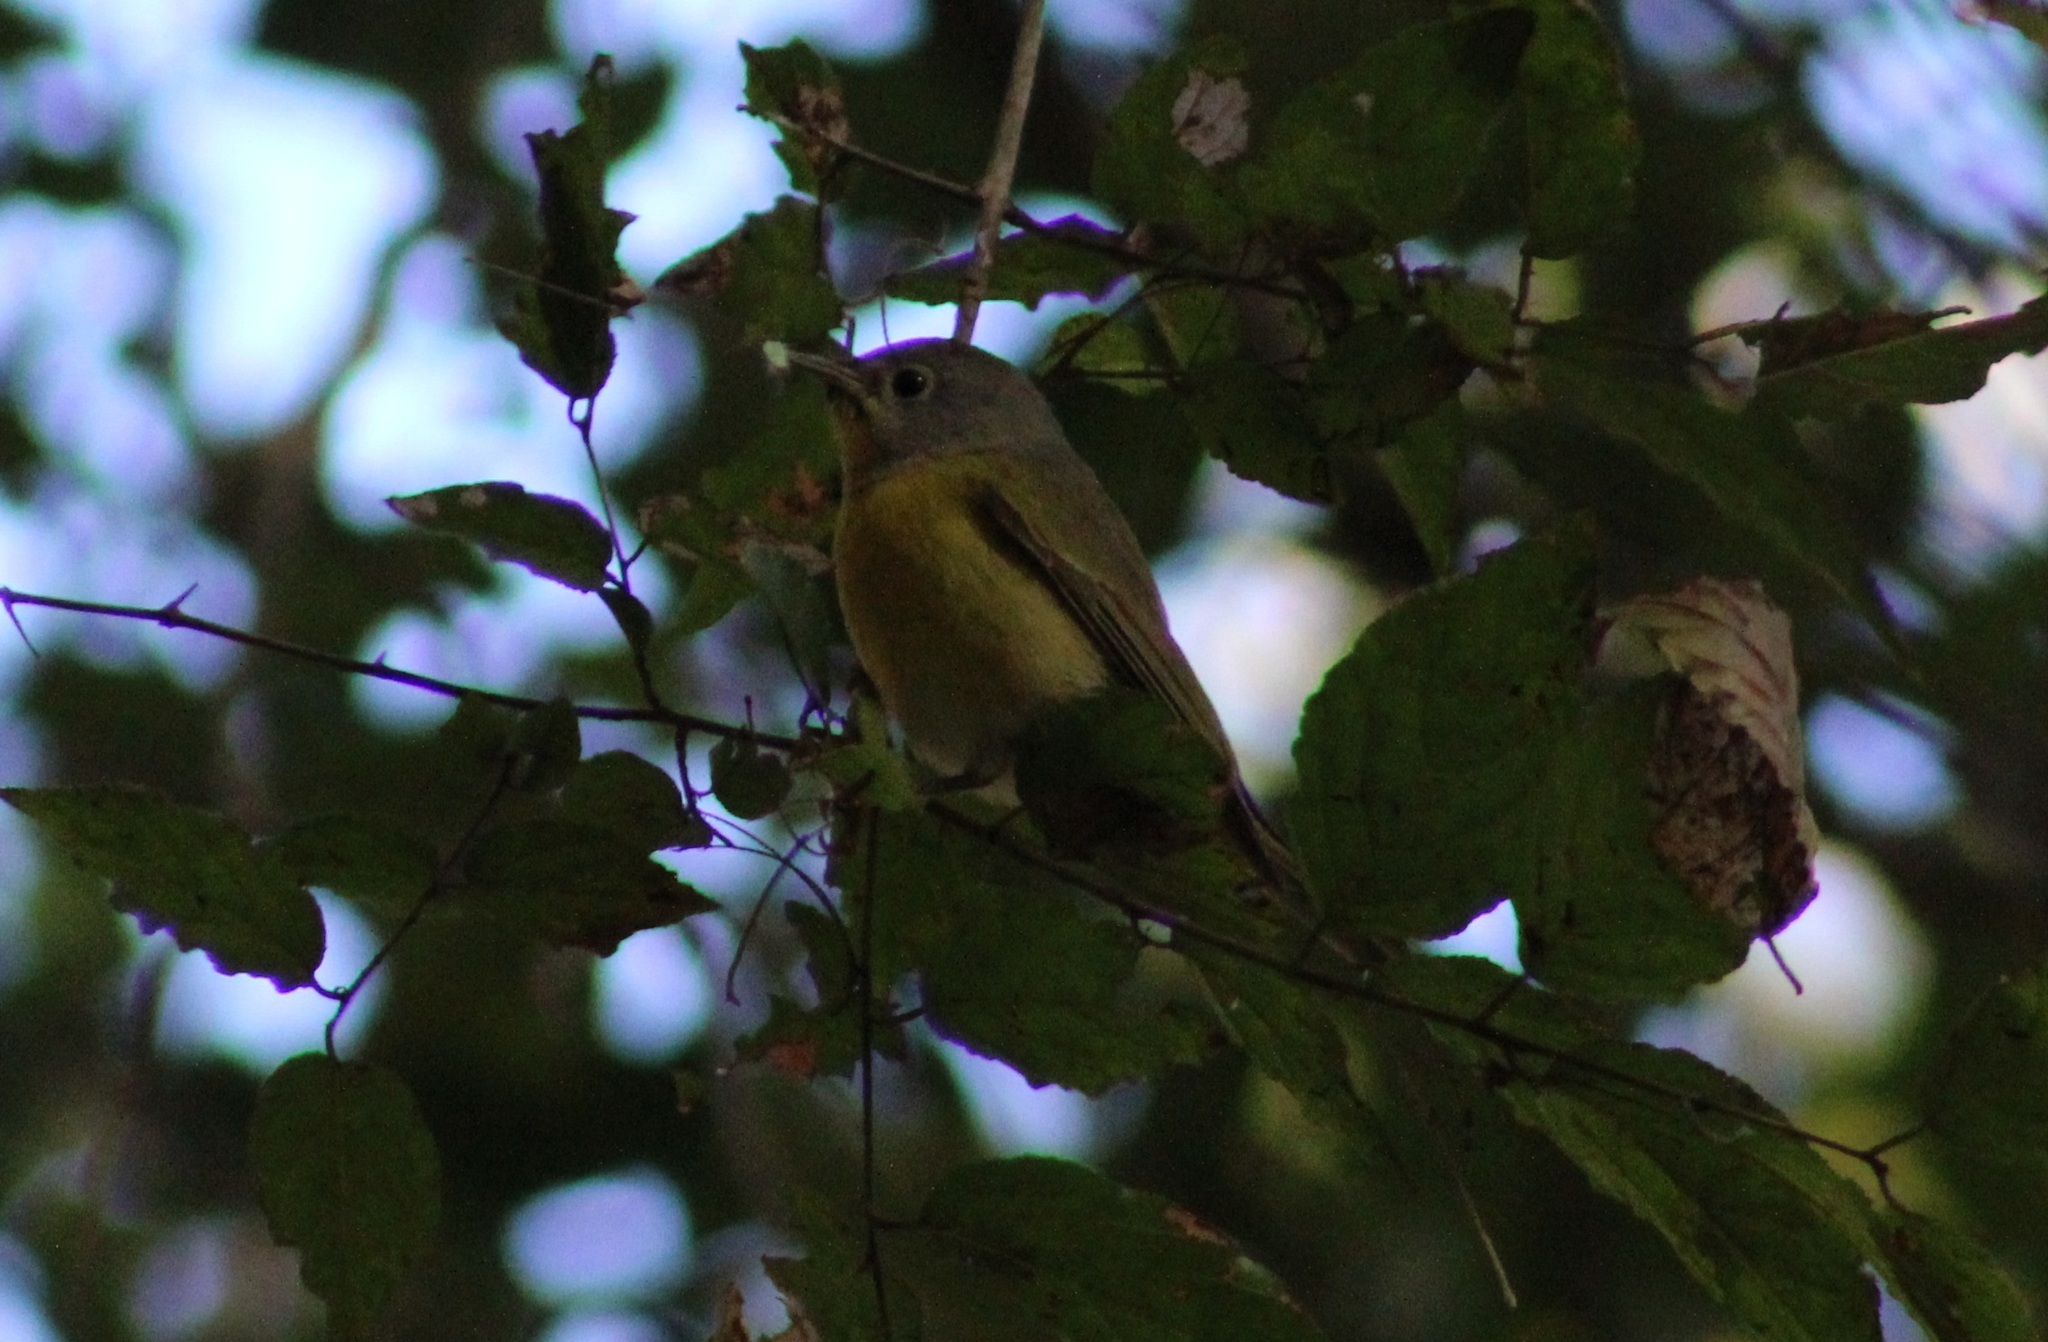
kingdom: Animalia
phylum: Chordata
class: Aves
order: Passeriformes
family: Parulidae
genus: Leiothlypis
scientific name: Leiothlypis ruficapilla
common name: Nashville warbler
